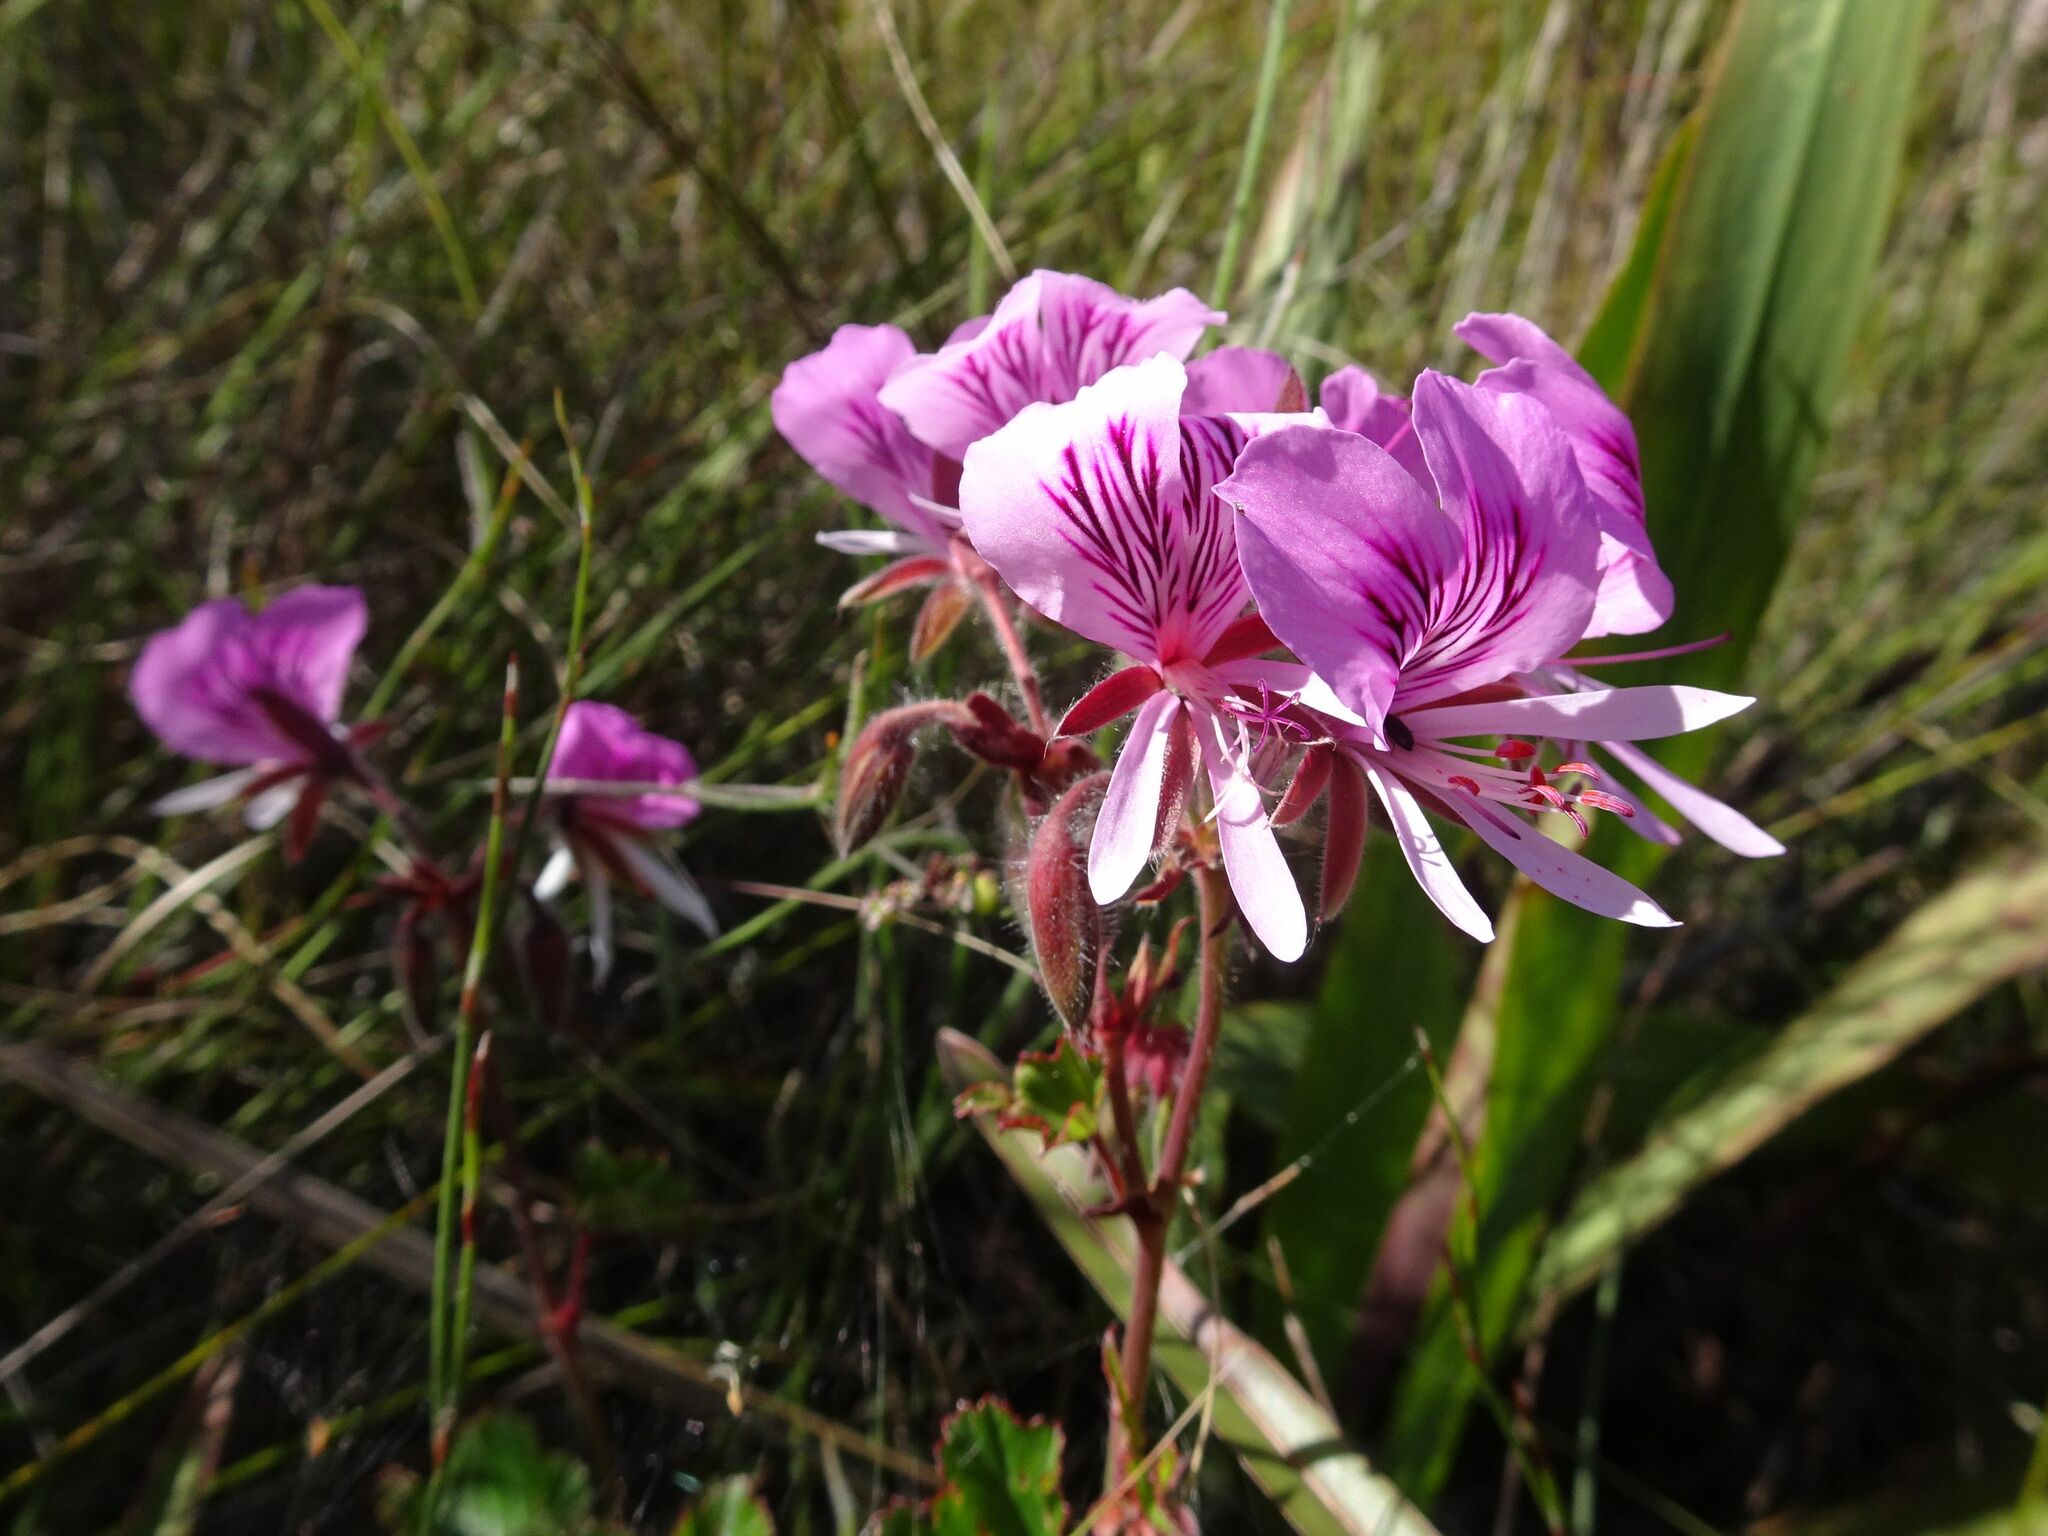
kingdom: Plantae
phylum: Tracheophyta
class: Magnoliopsida
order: Geraniales
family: Geraniaceae
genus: Pelargonium
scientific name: Pelargonium cordifolium
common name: Heart-leaf pelargonium
